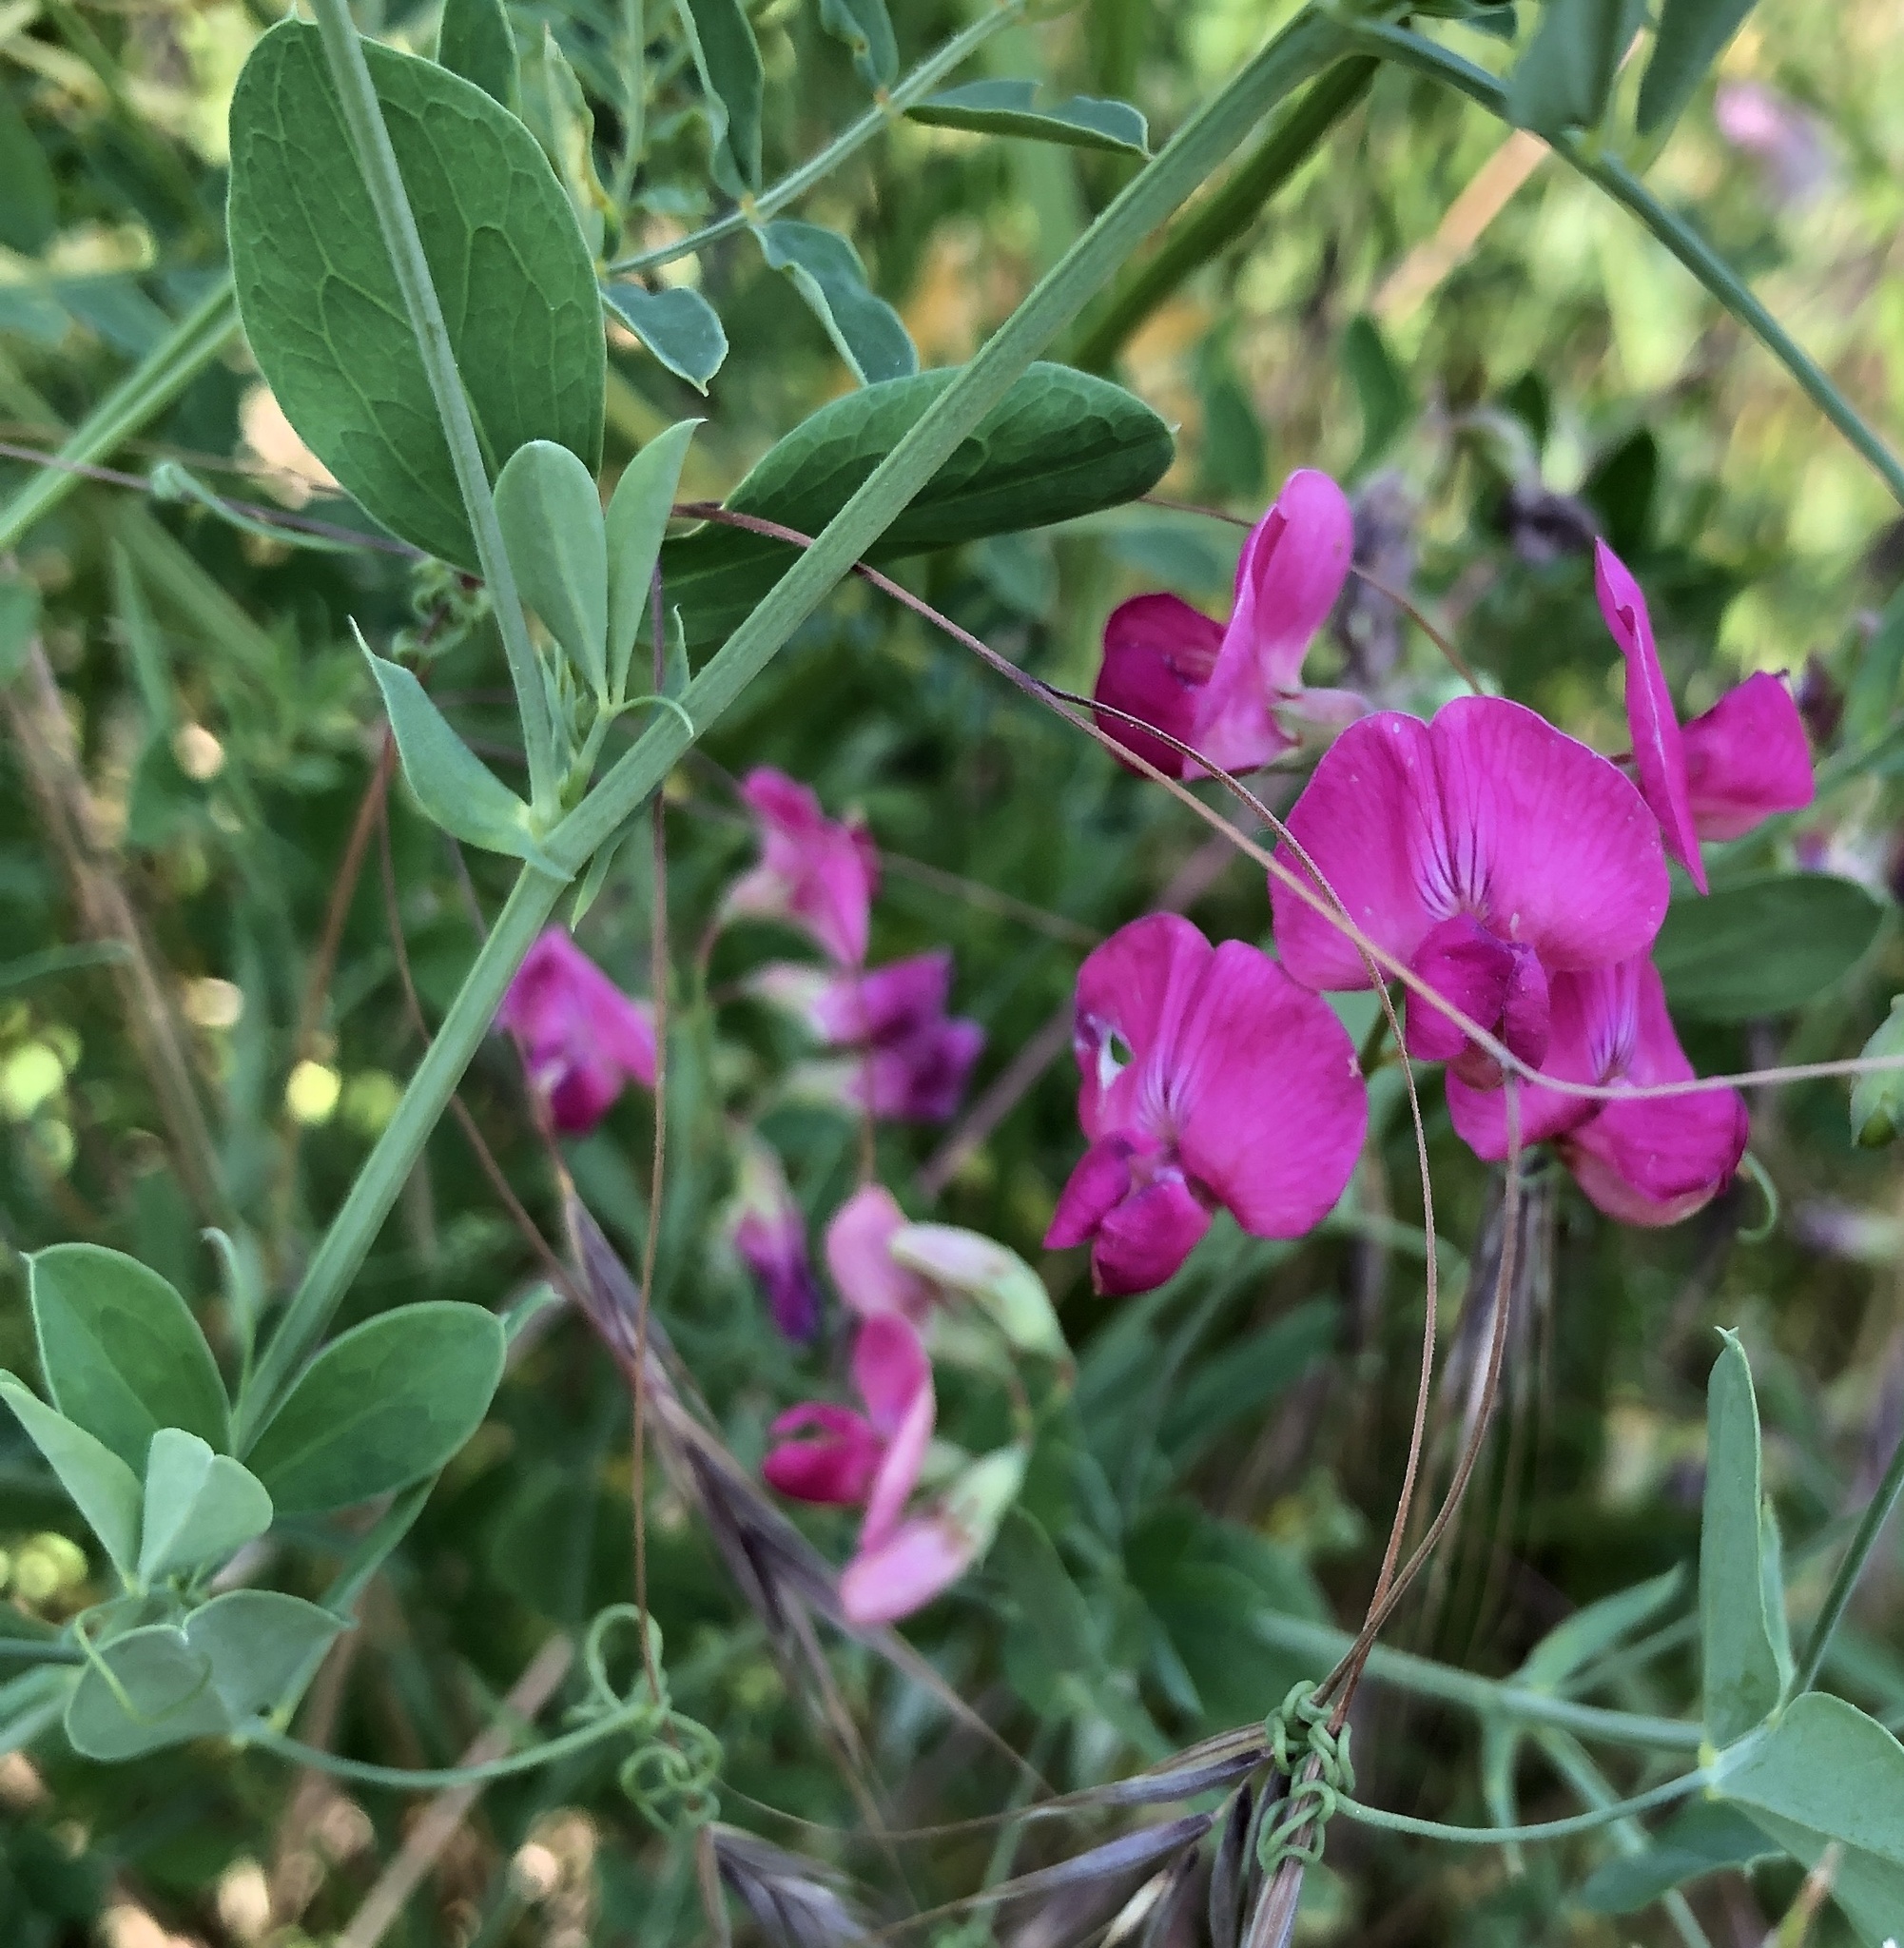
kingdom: Plantae
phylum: Tracheophyta
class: Magnoliopsida
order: Fabales
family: Fabaceae
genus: Lathyrus
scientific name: Lathyrus tuberosus
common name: Tuberous pea
